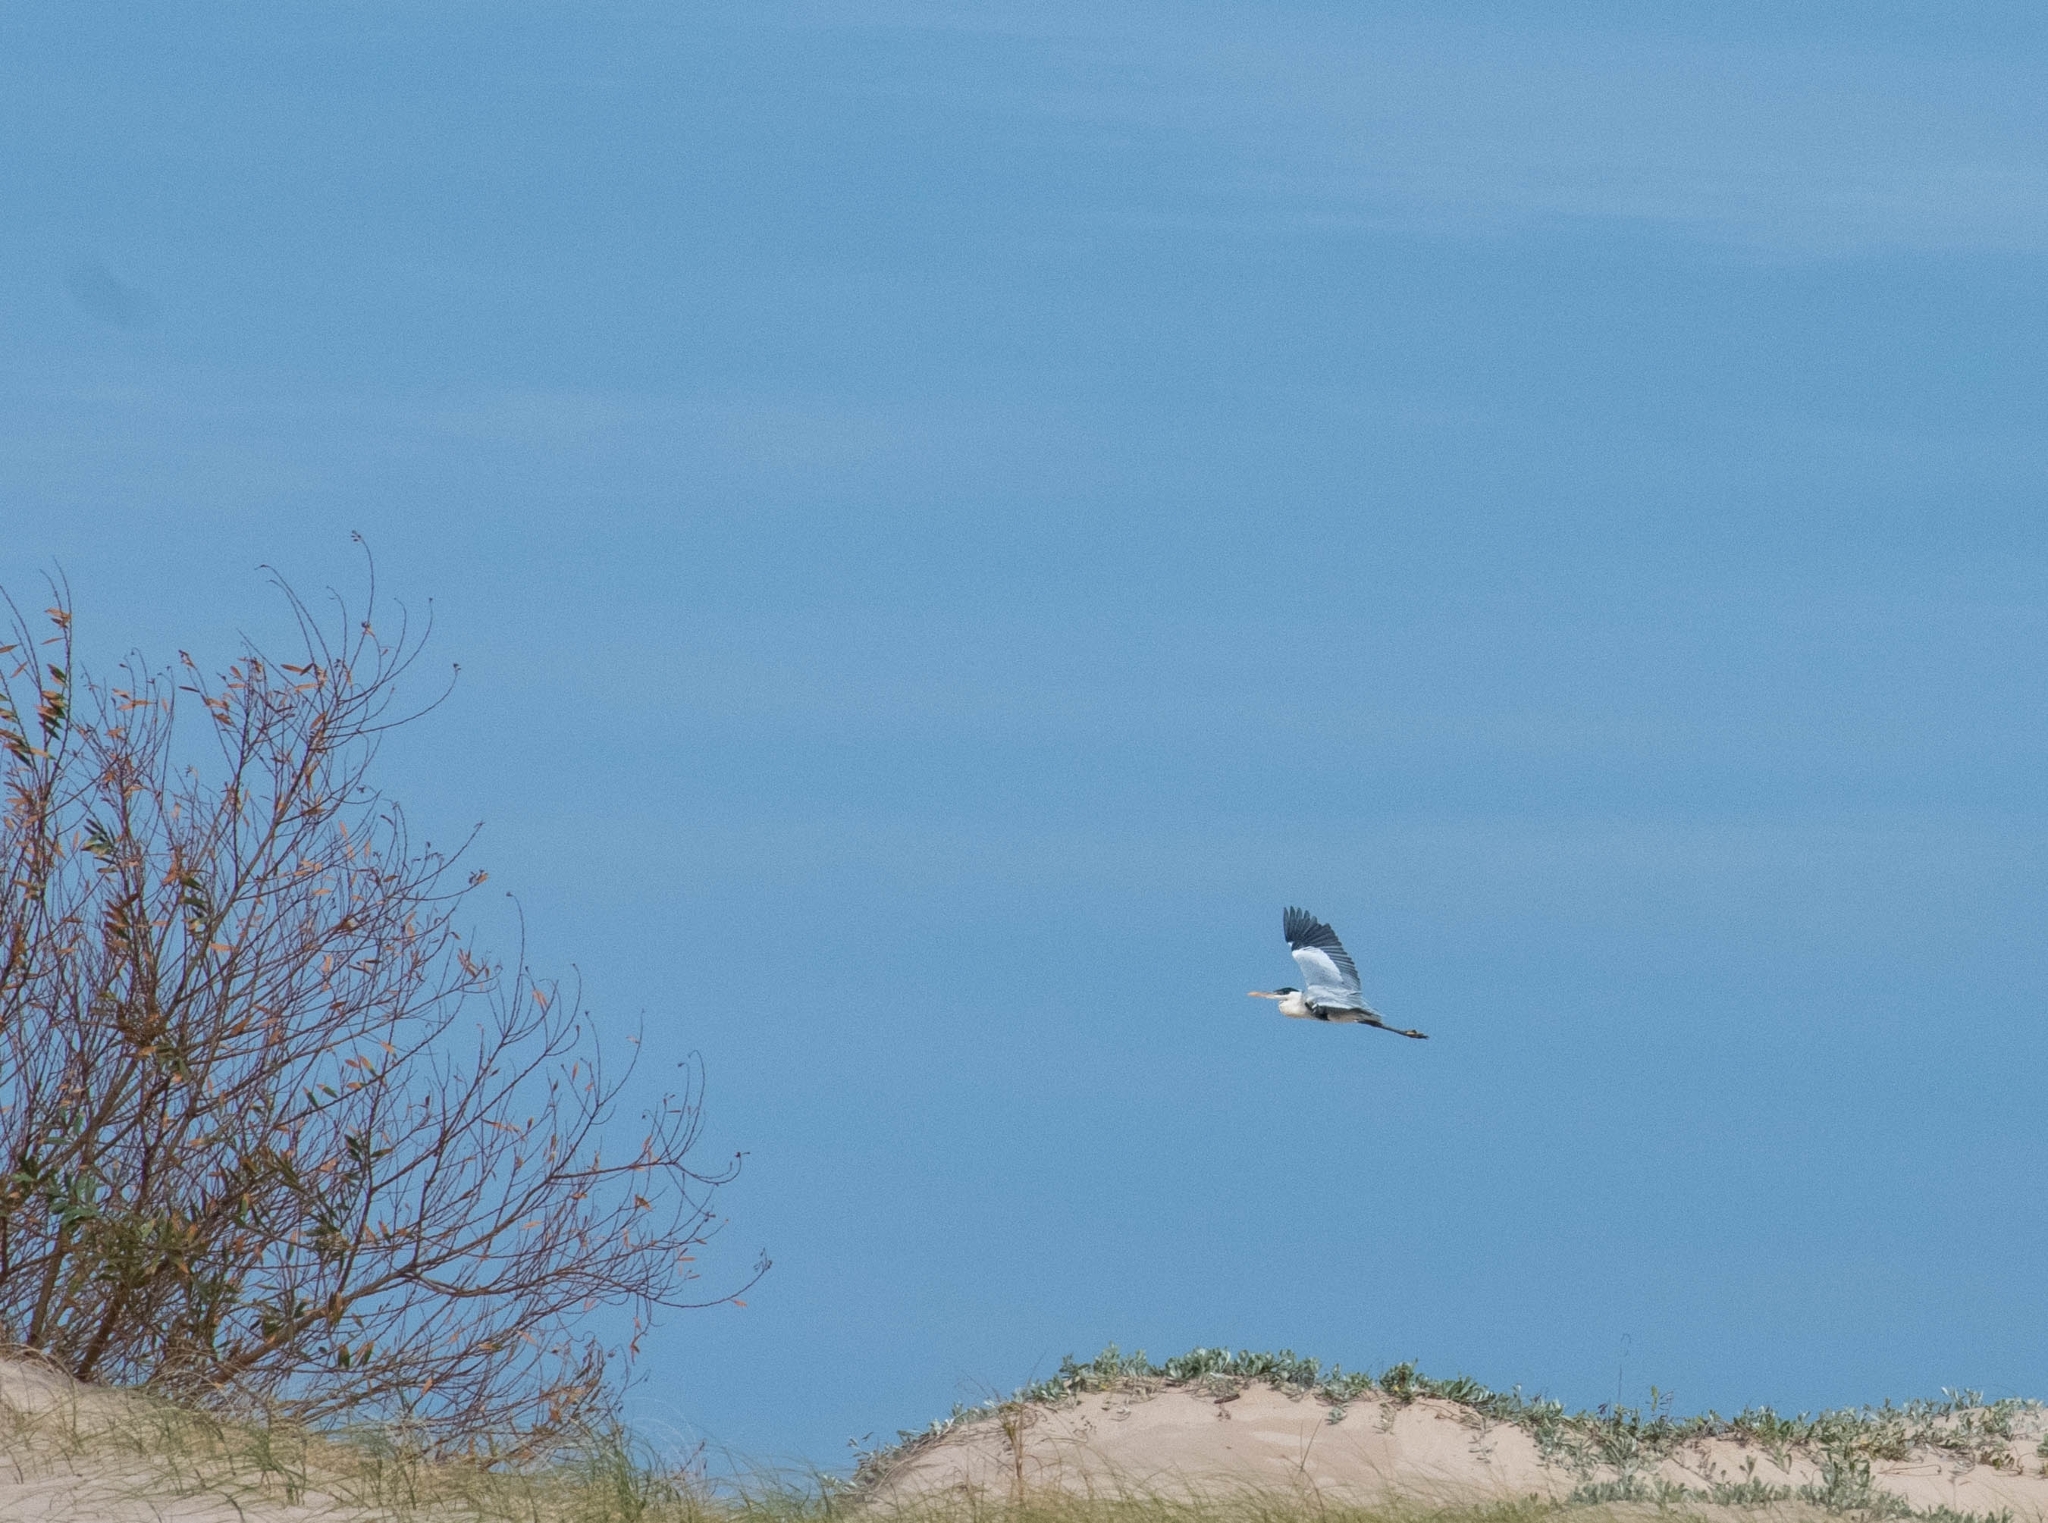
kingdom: Animalia
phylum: Chordata
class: Aves
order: Pelecaniformes
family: Ardeidae
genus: Ardea
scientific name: Ardea cocoi
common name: Cocoi heron
